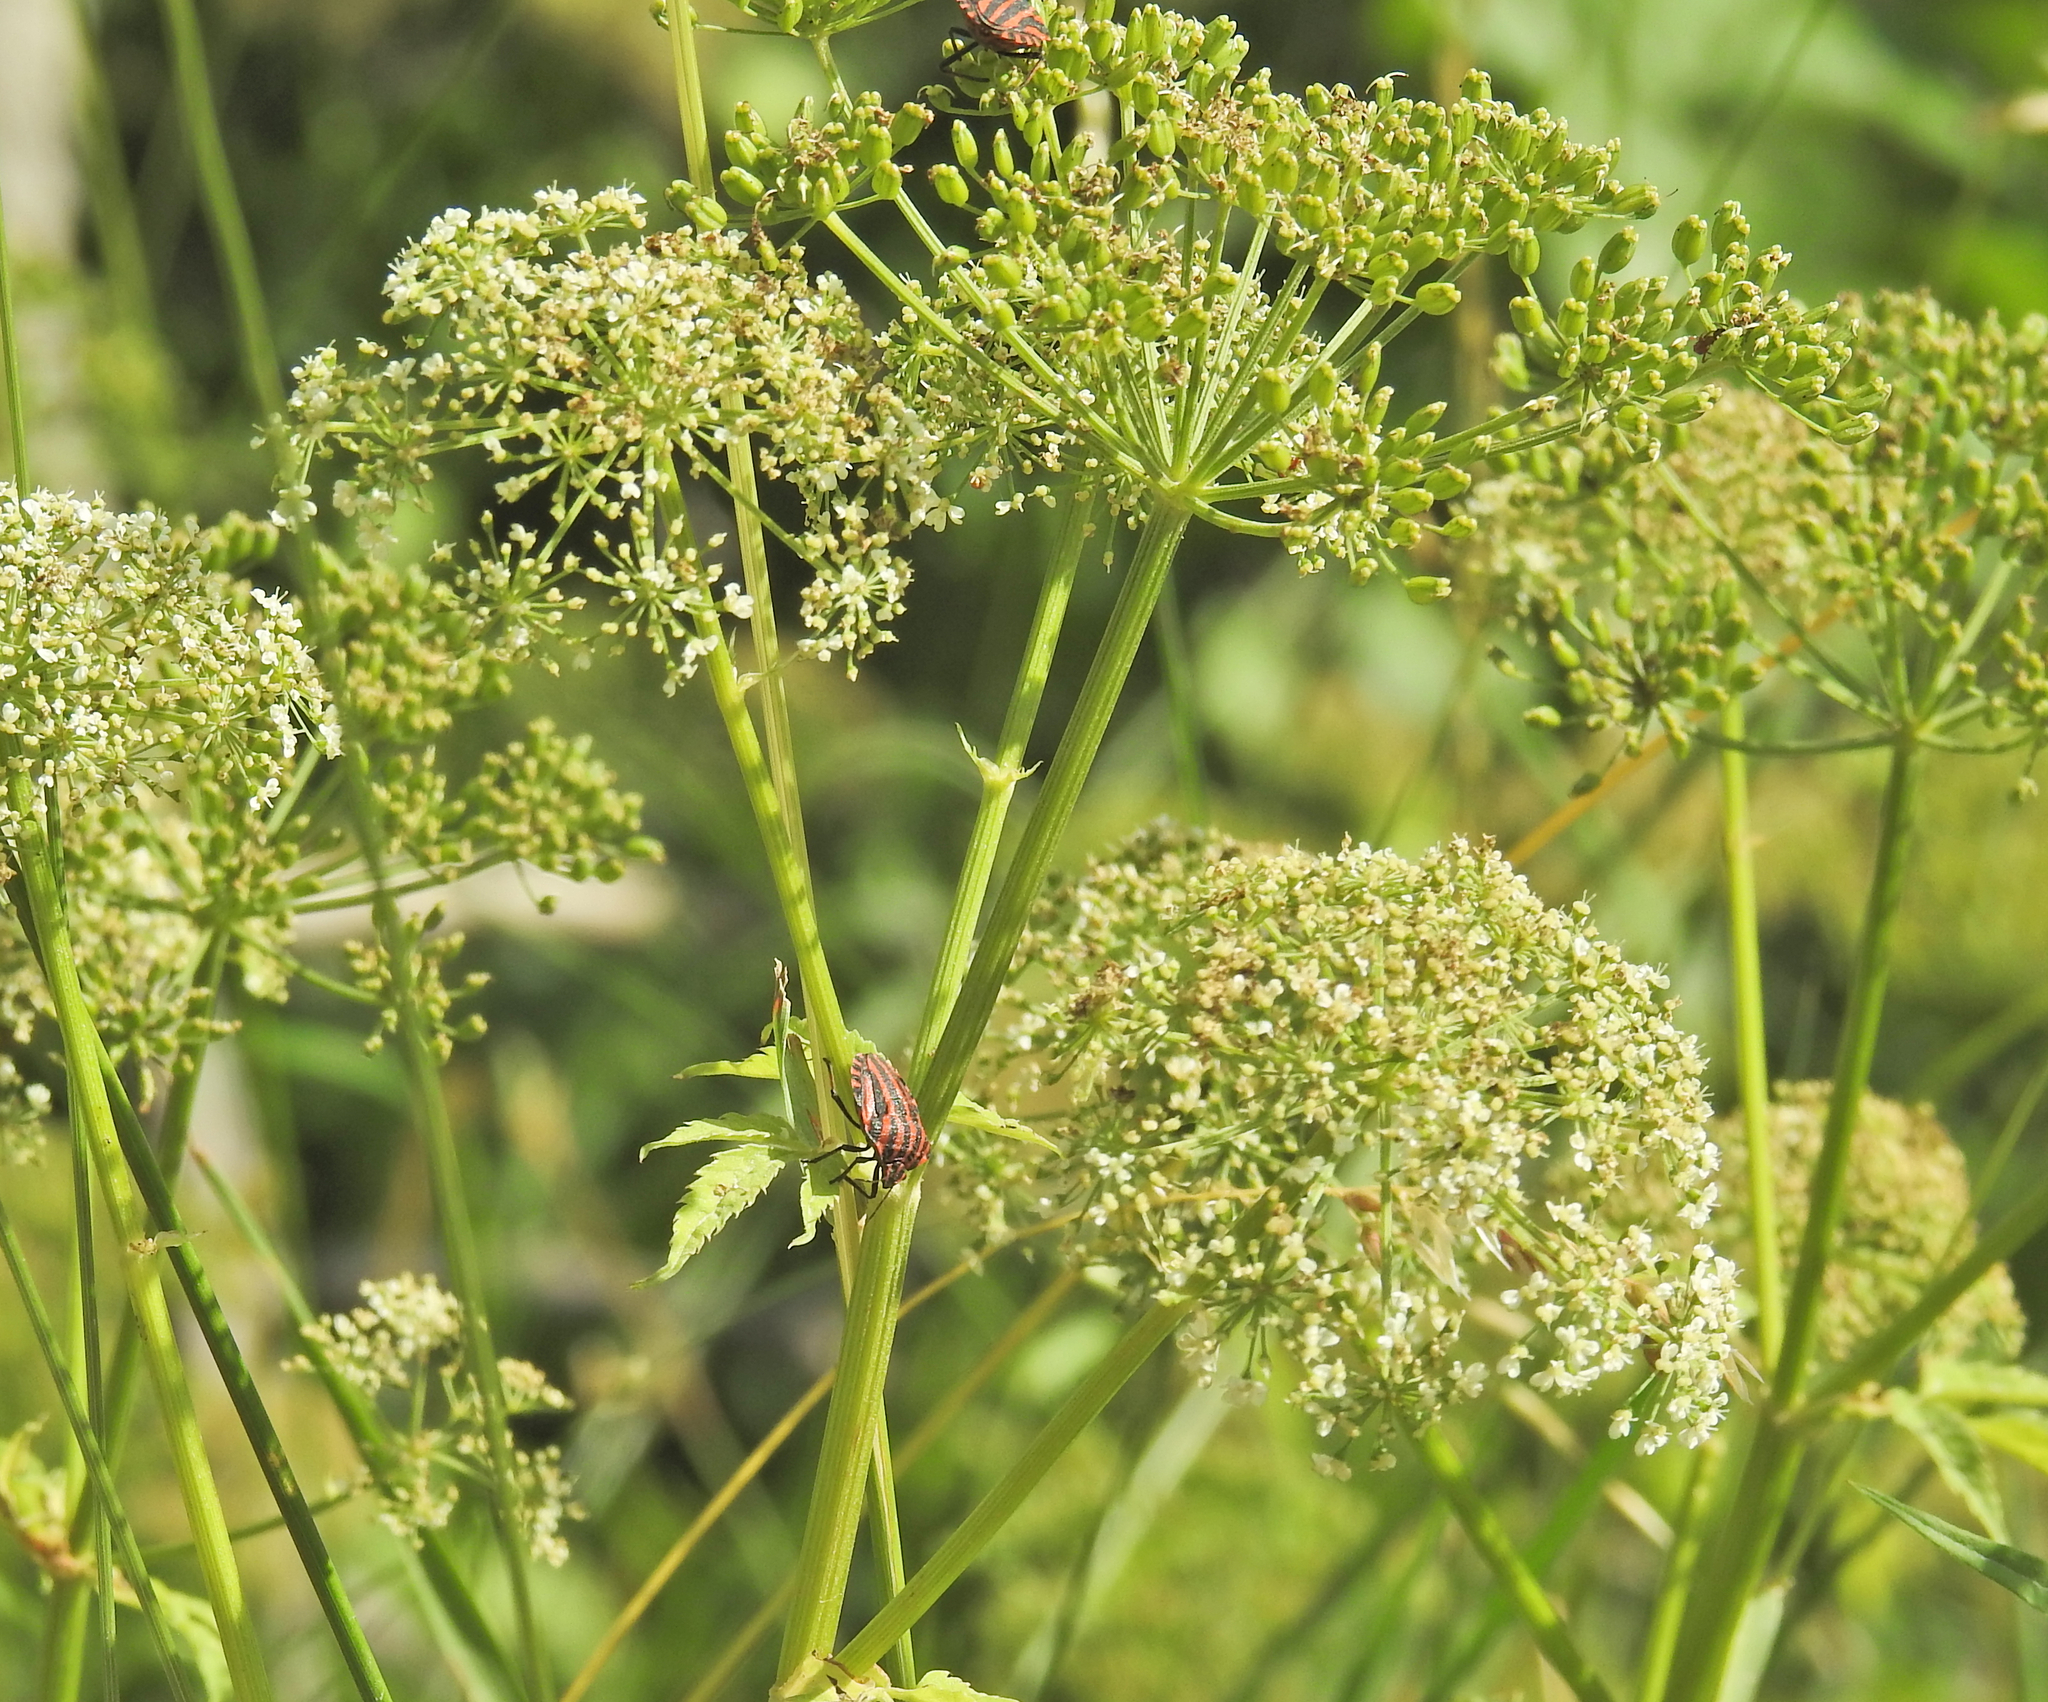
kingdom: Animalia
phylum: Arthropoda
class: Insecta
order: Hemiptera
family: Pentatomidae
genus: Graphosoma
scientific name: Graphosoma italicum
